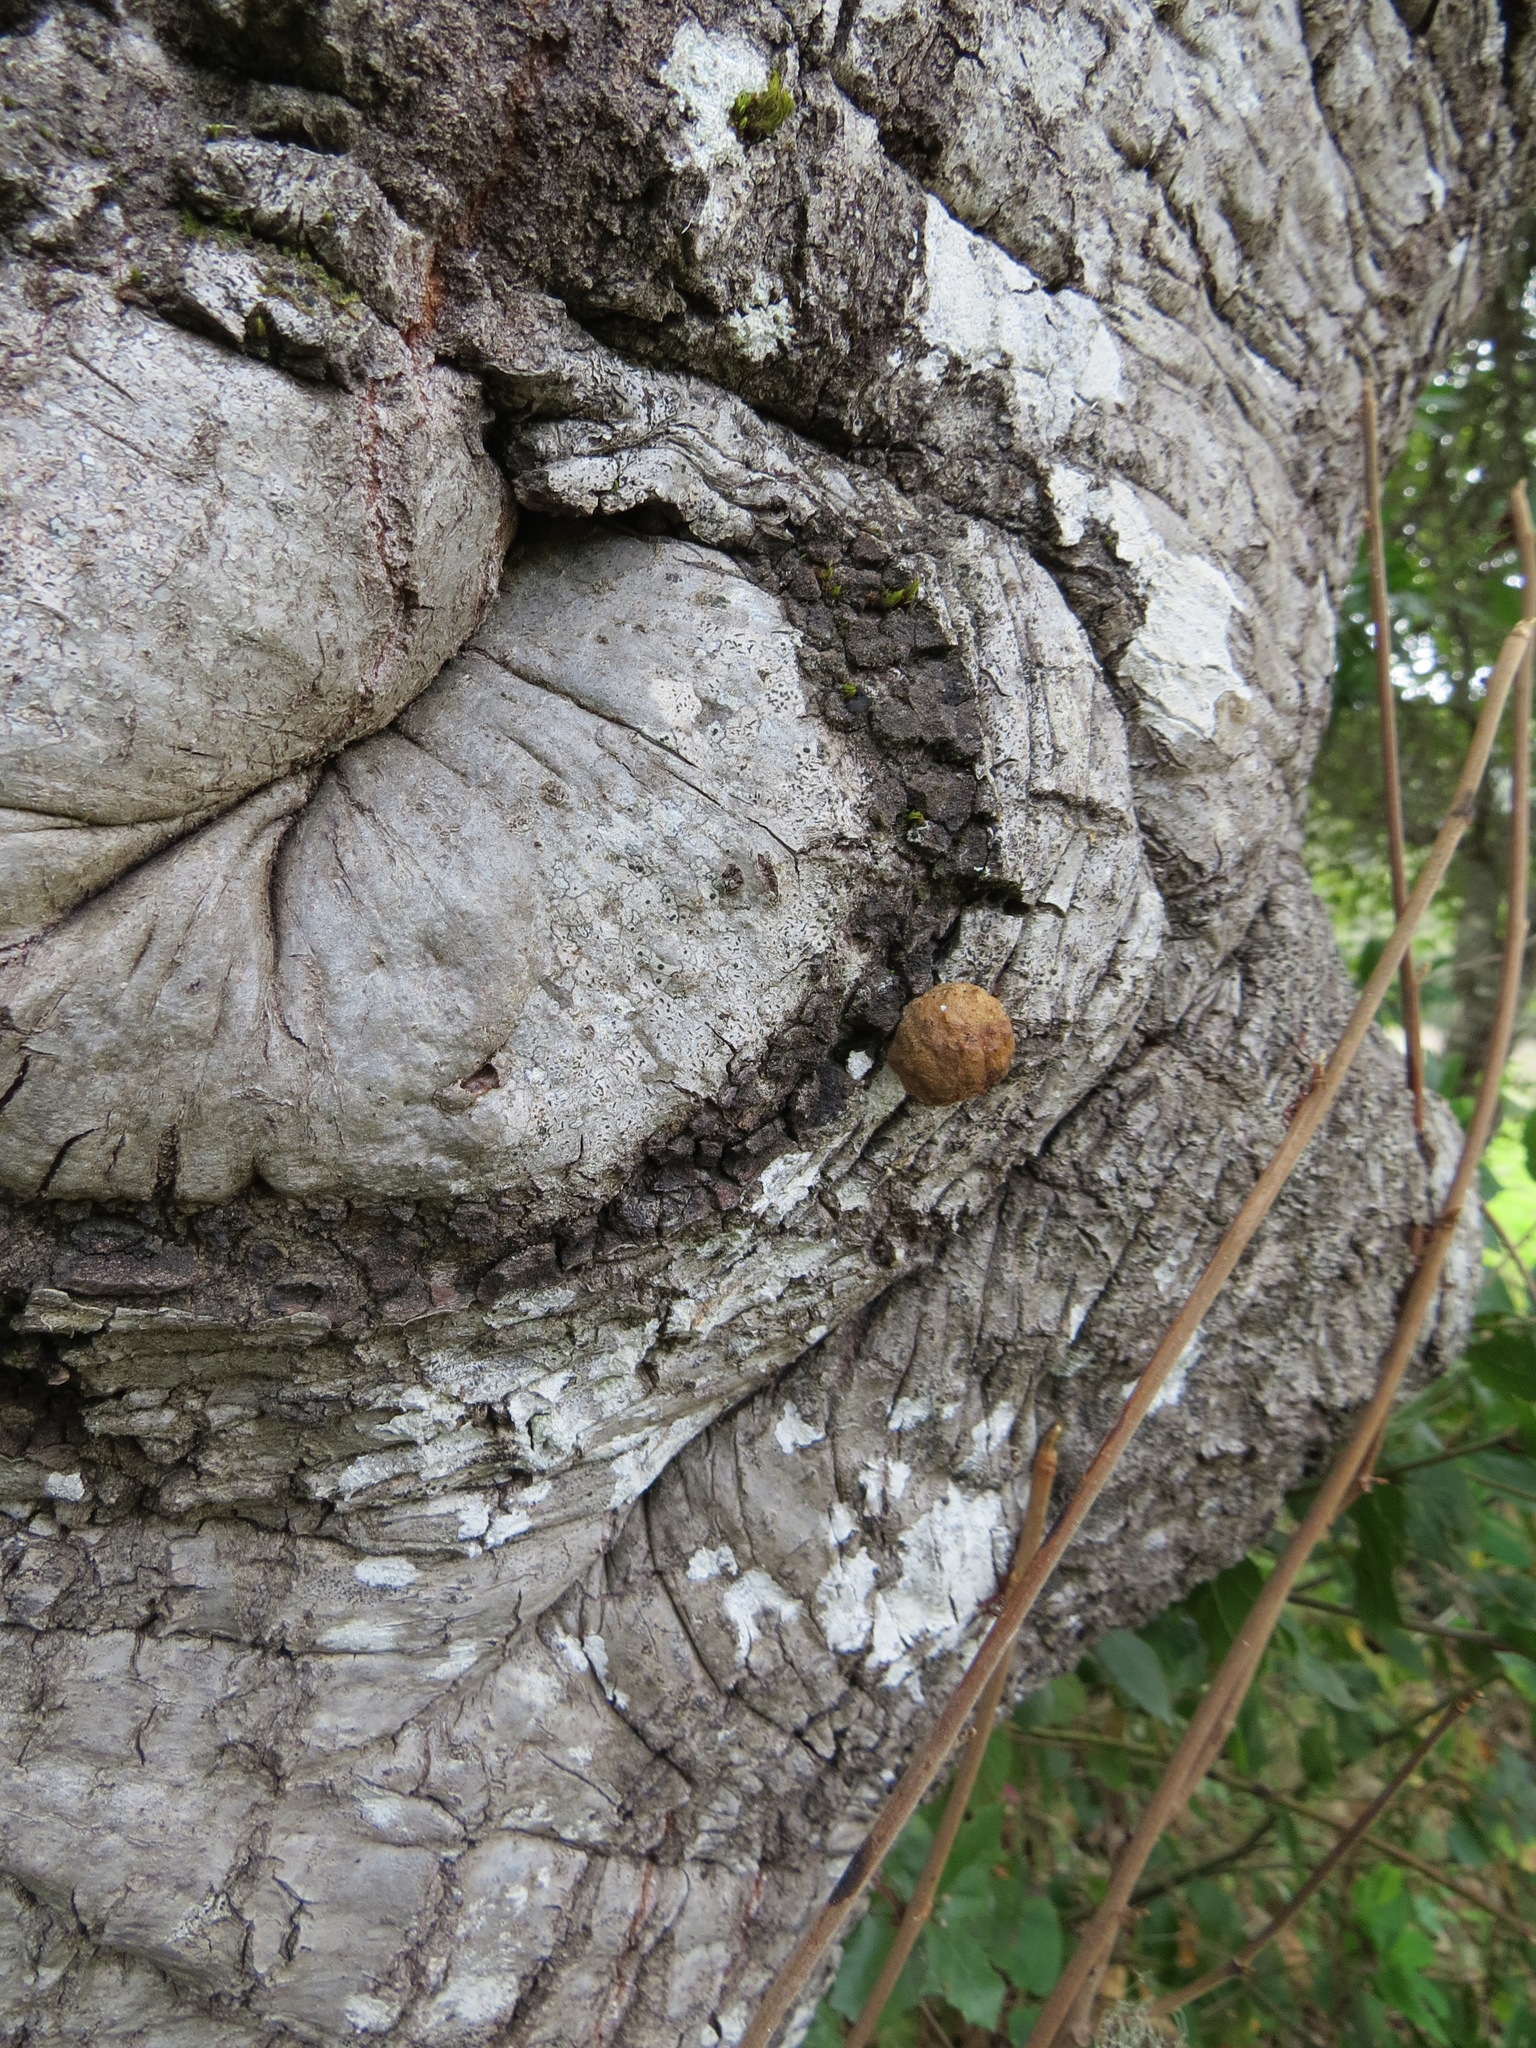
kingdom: Animalia
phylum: Arthropoda
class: Insecta
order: Hymenoptera
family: Cynipidae
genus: Amphibolips
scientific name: Amphibolips quercuspomiformis
